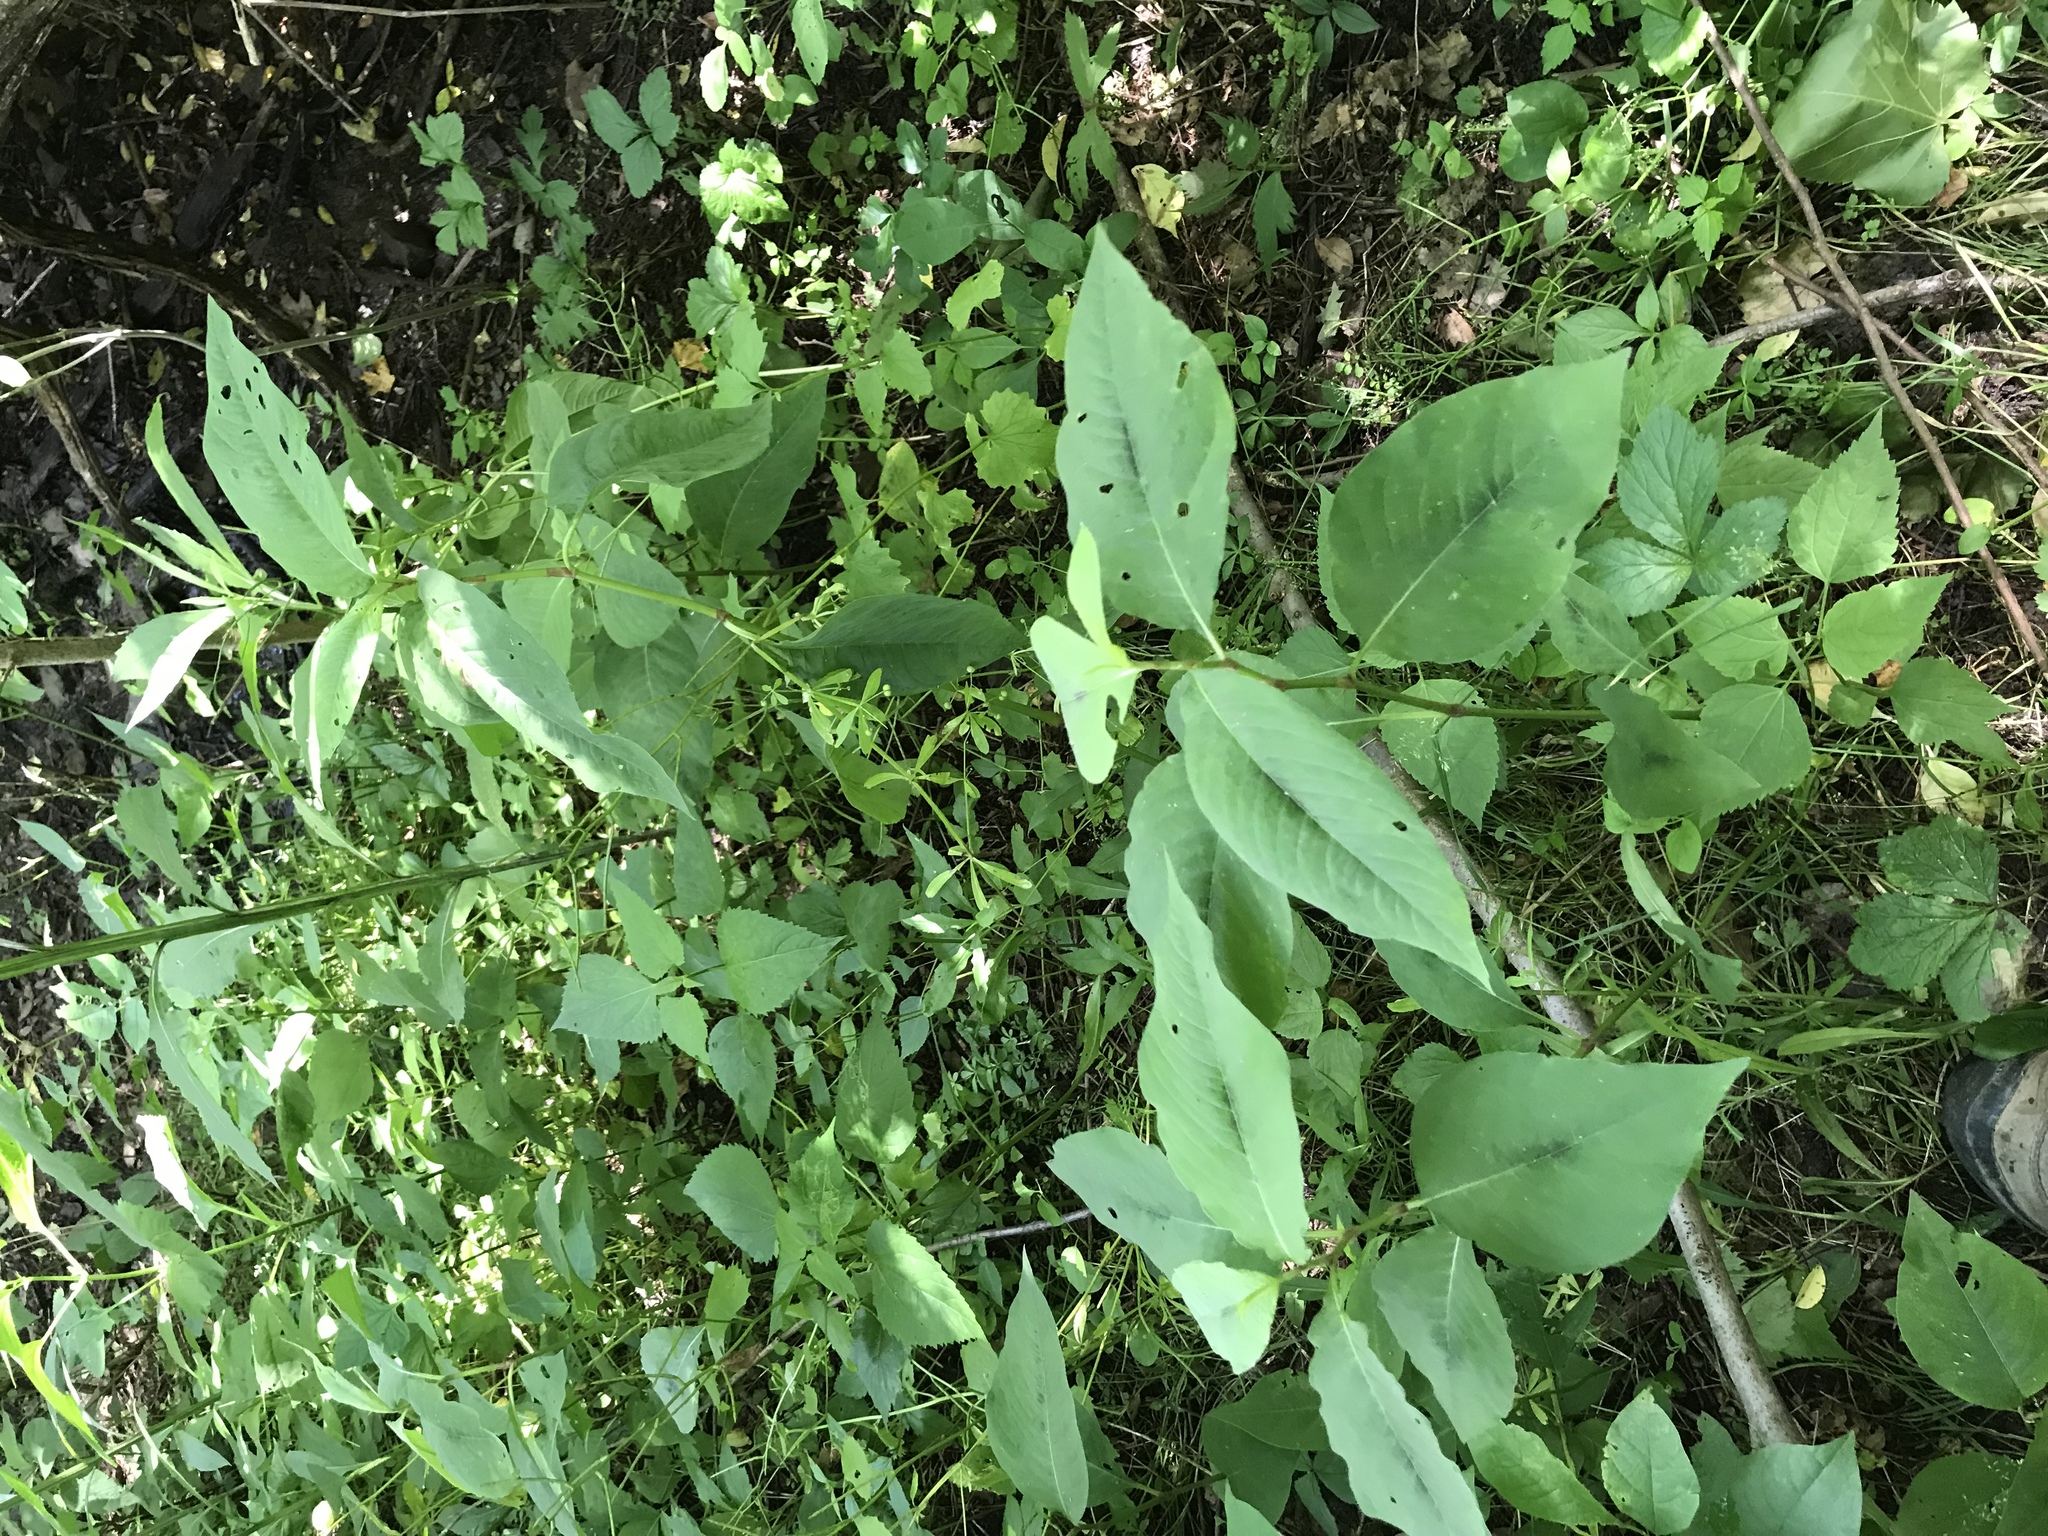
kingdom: Plantae
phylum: Tracheophyta
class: Magnoliopsida
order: Caryophyllales
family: Polygonaceae
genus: Persicaria
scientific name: Persicaria virginiana
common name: Jumpseed
